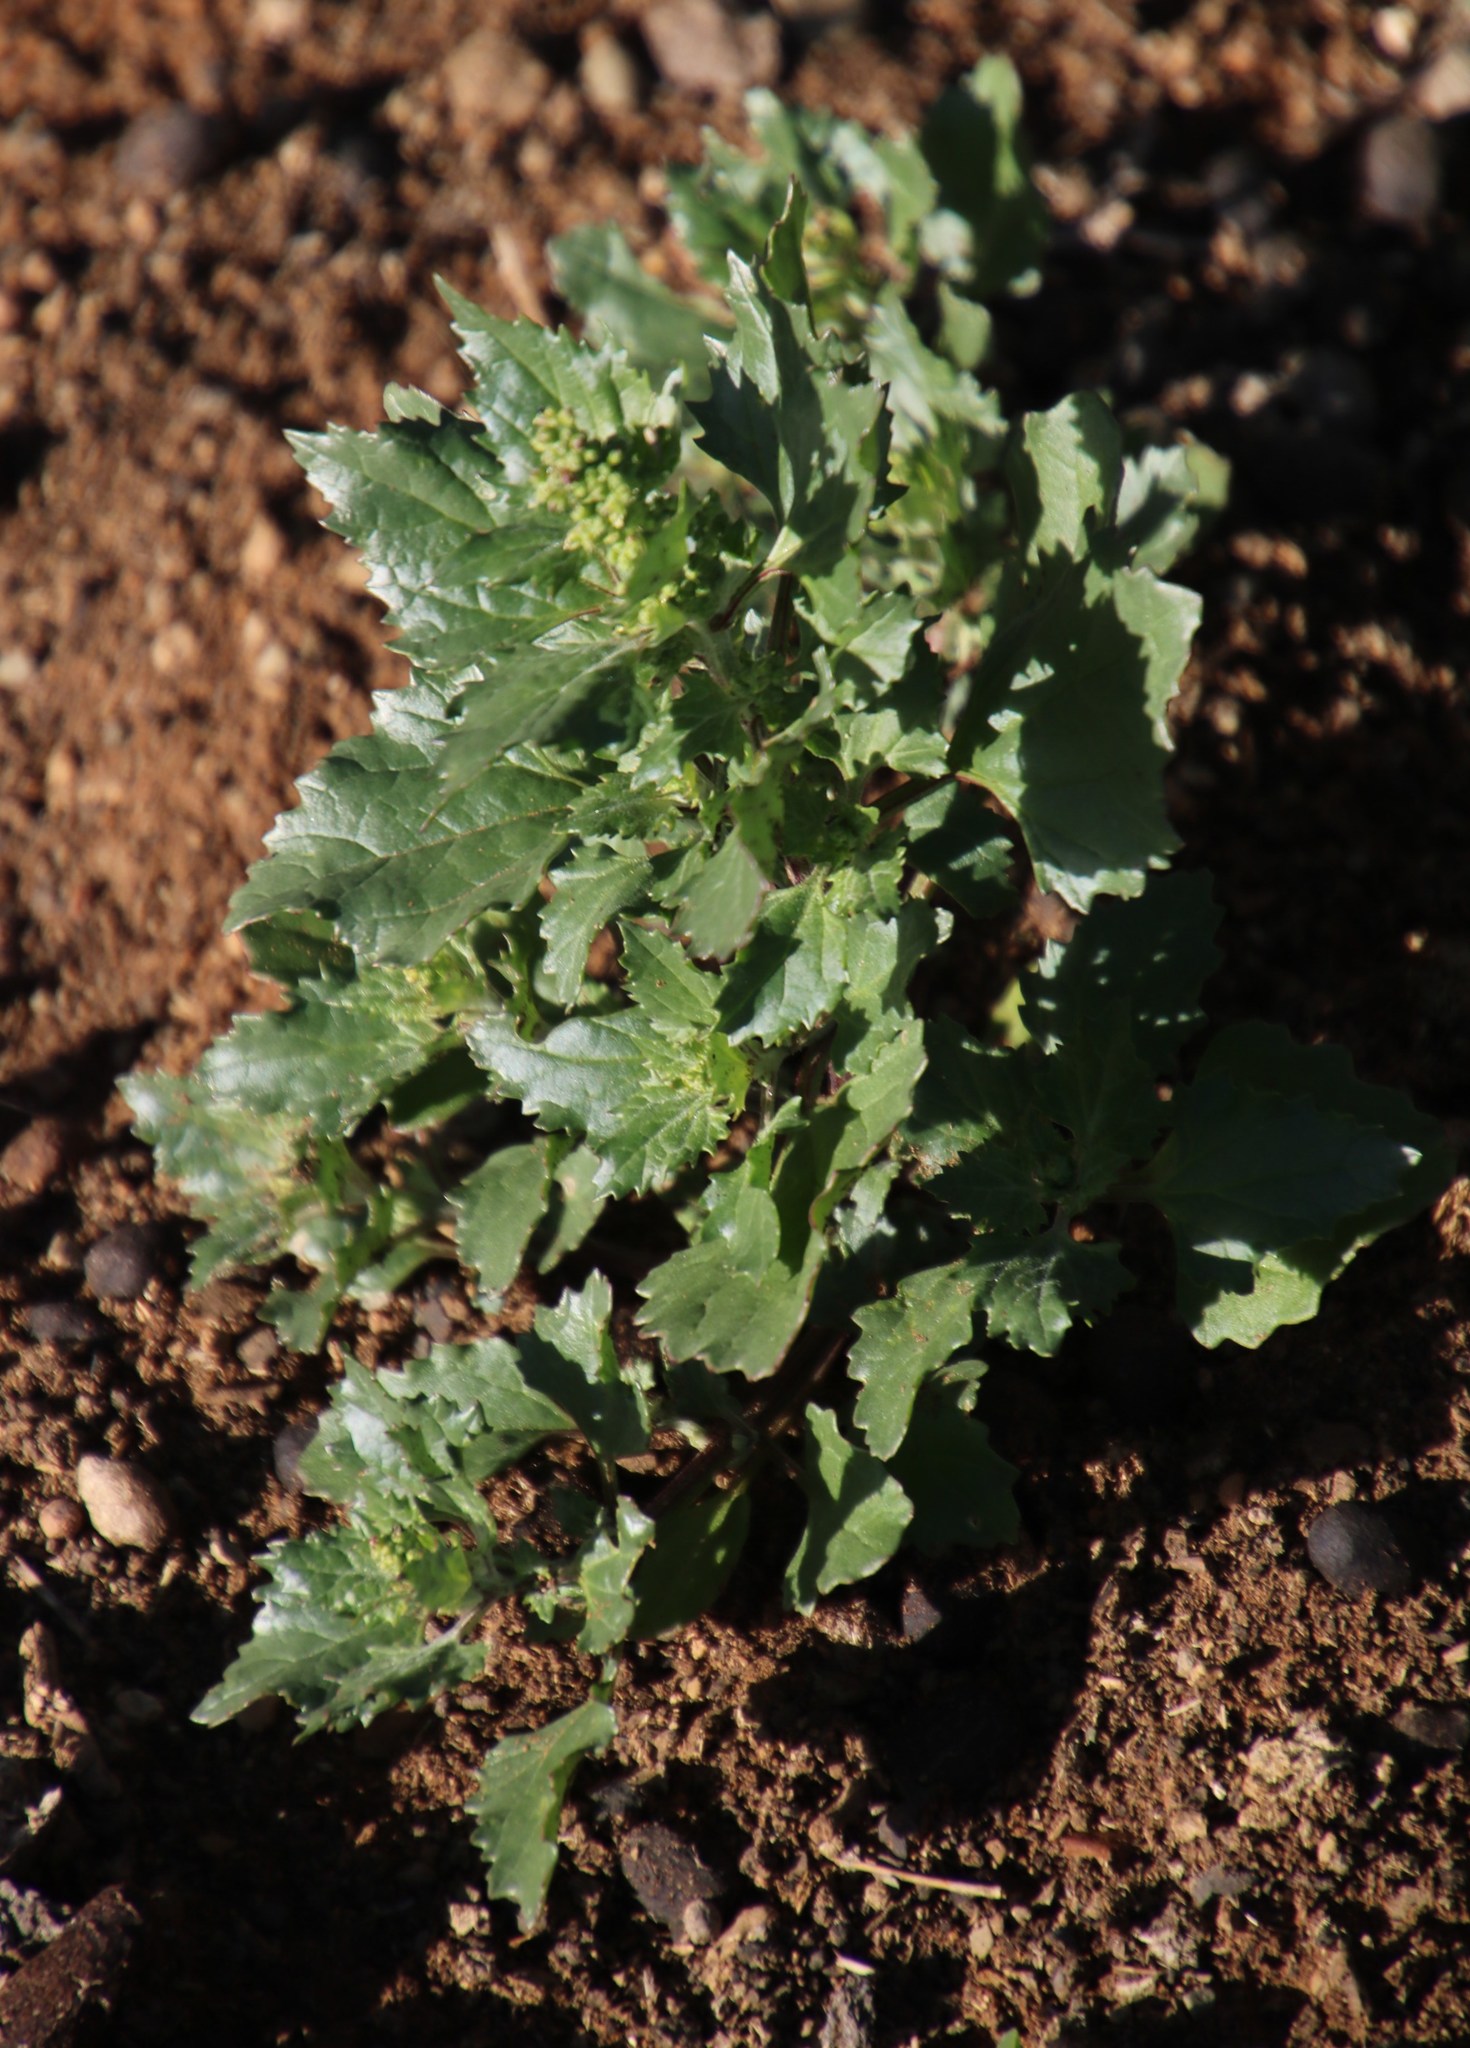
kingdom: Plantae
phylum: Tracheophyta
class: Magnoliopsida
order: Caryophyllales
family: Amaranthaceae
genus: Chenopodiastrum
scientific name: Chenopodiastrum murale
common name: Sowbane
